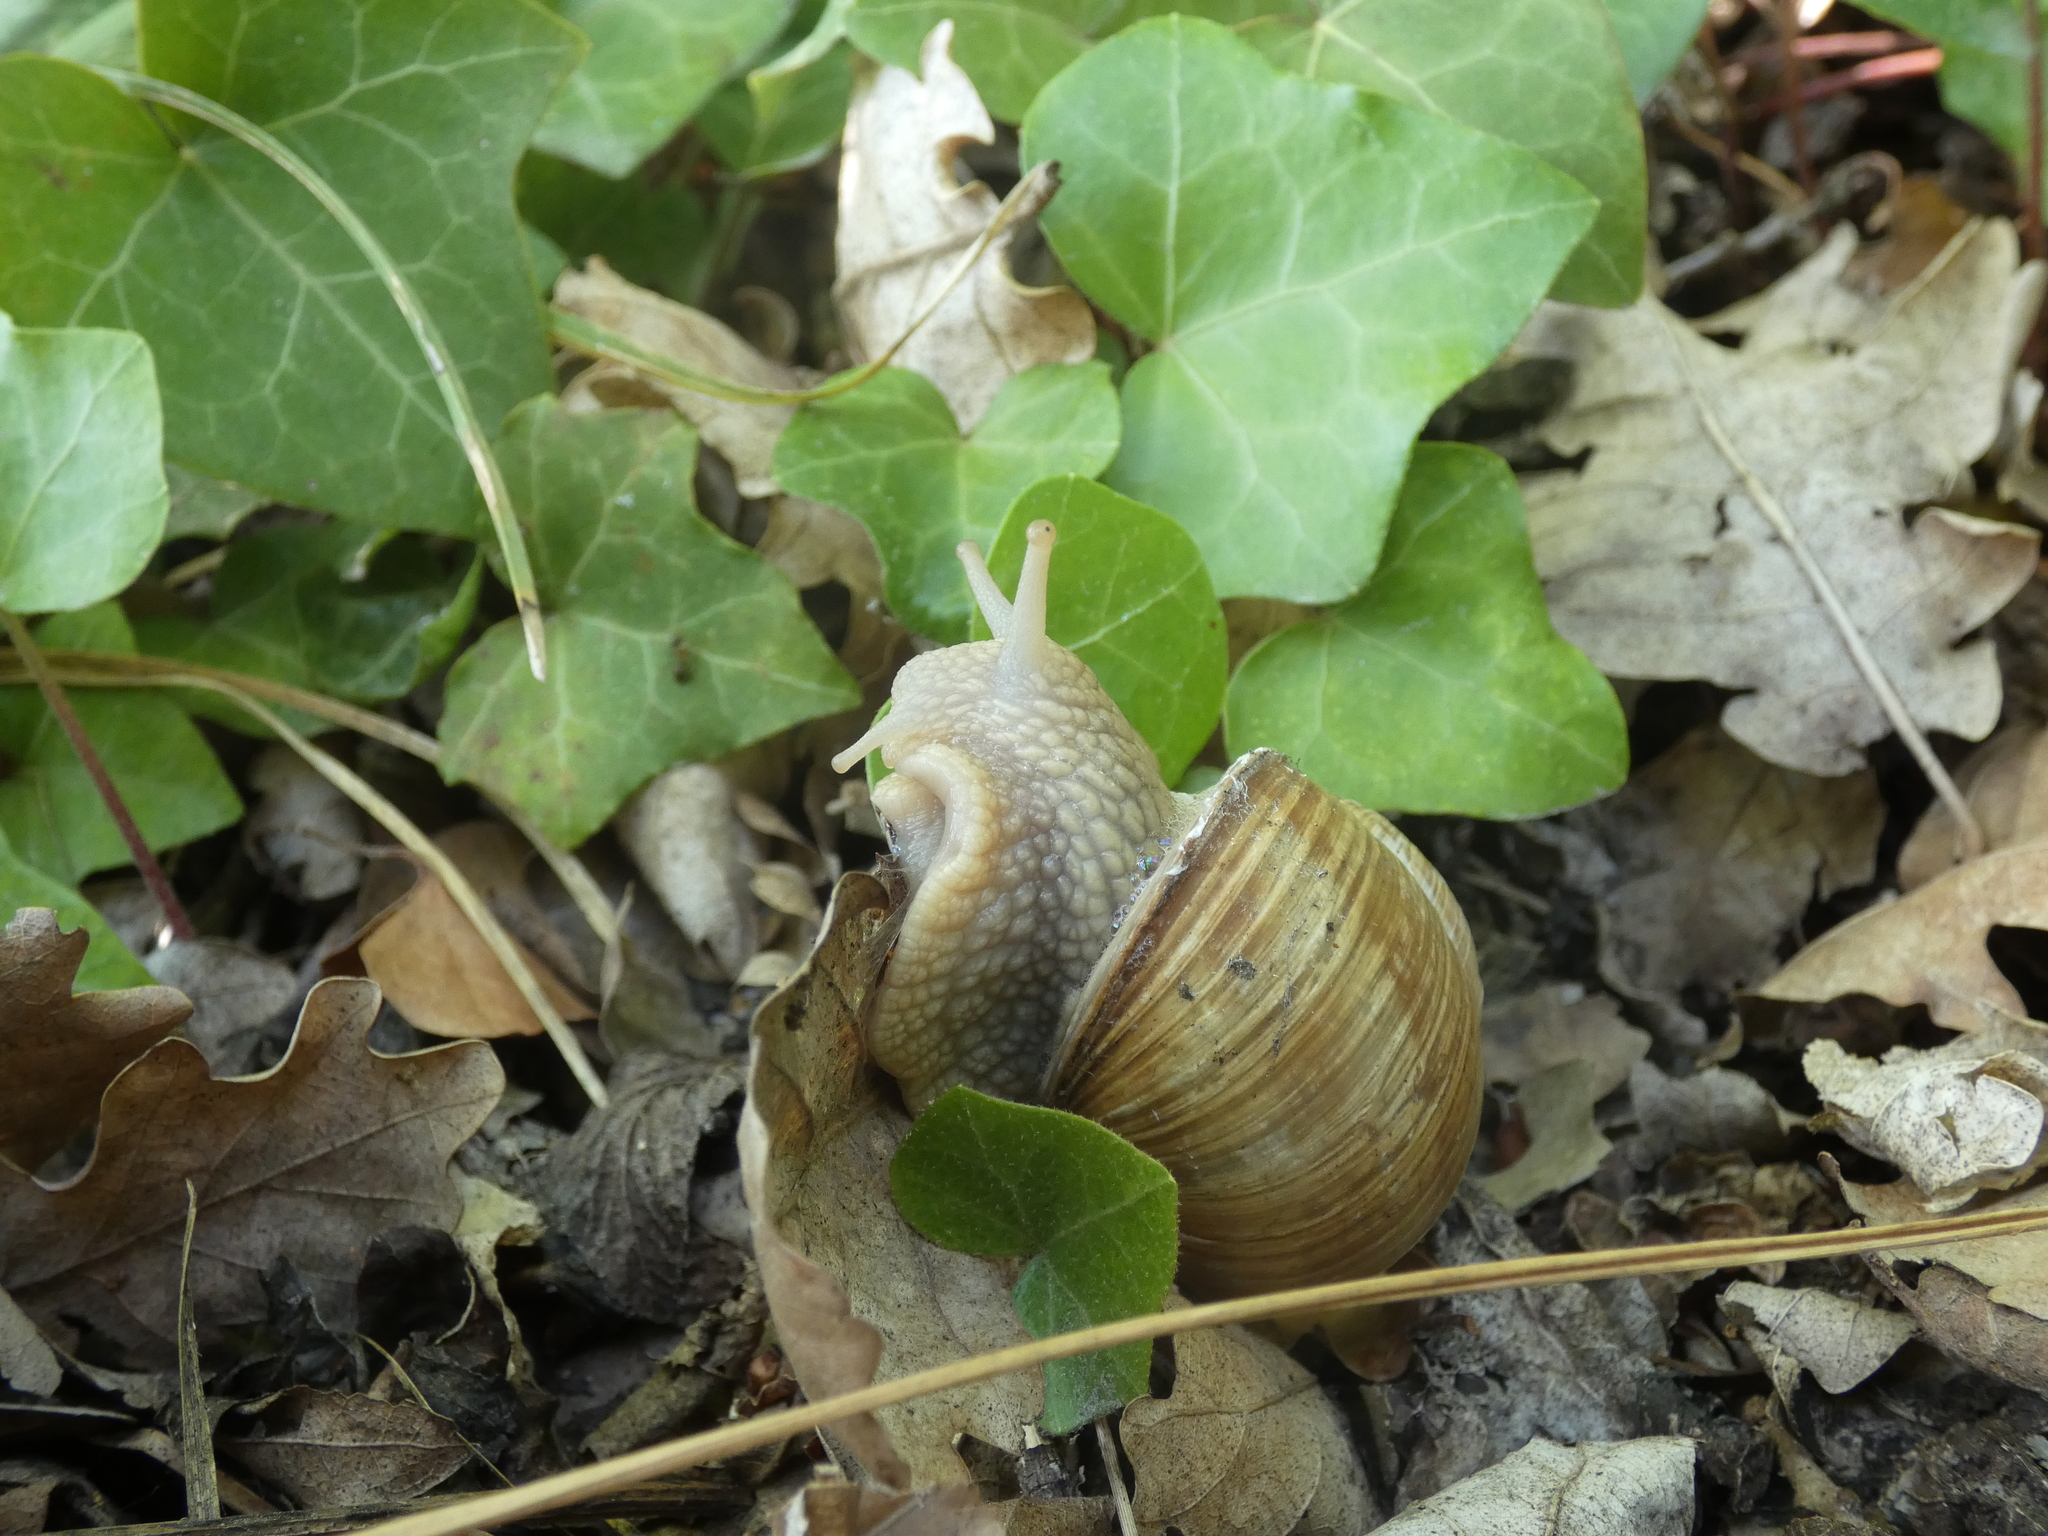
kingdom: Animalia
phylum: Mollusca
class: Gastropoda
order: Stylommatophora
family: Helicidae
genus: Helix
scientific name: Helix pomatia
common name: Roman snail
